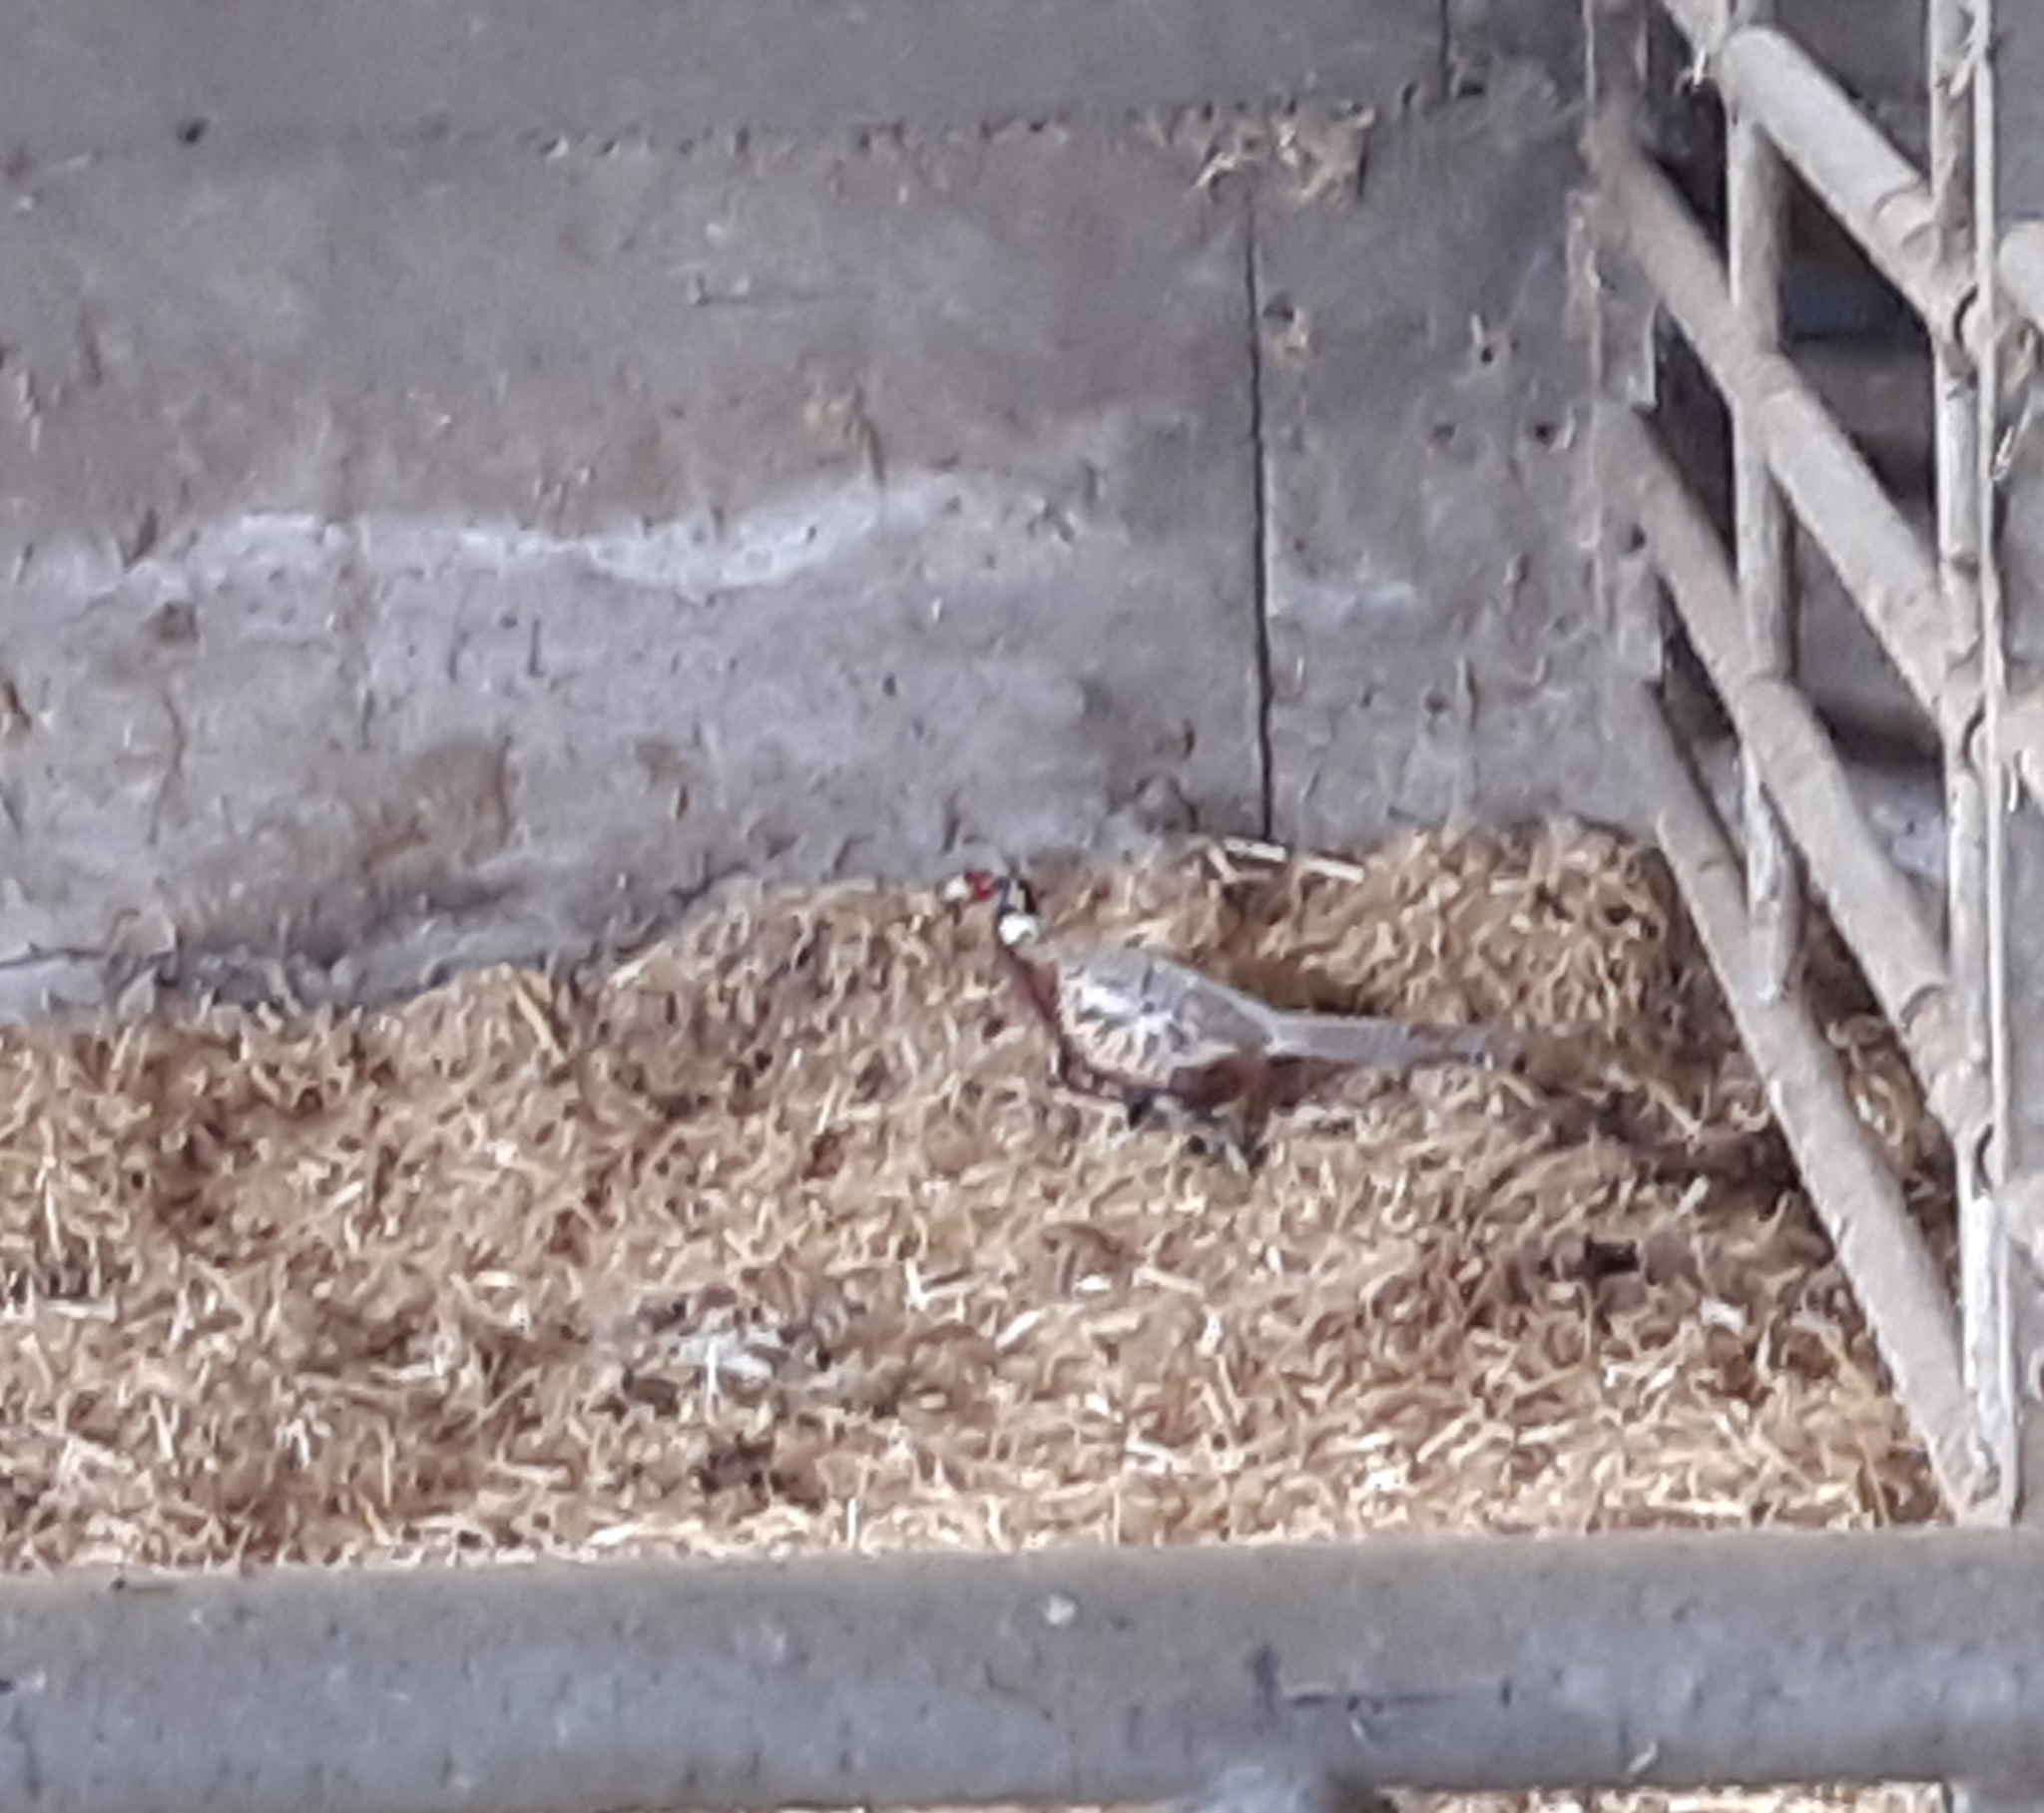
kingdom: Animalia
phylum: Chordata
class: Aves
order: Galliformes
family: Phasianidae
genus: Phasianus
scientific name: Phasianus colchicus
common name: Common pheasant
